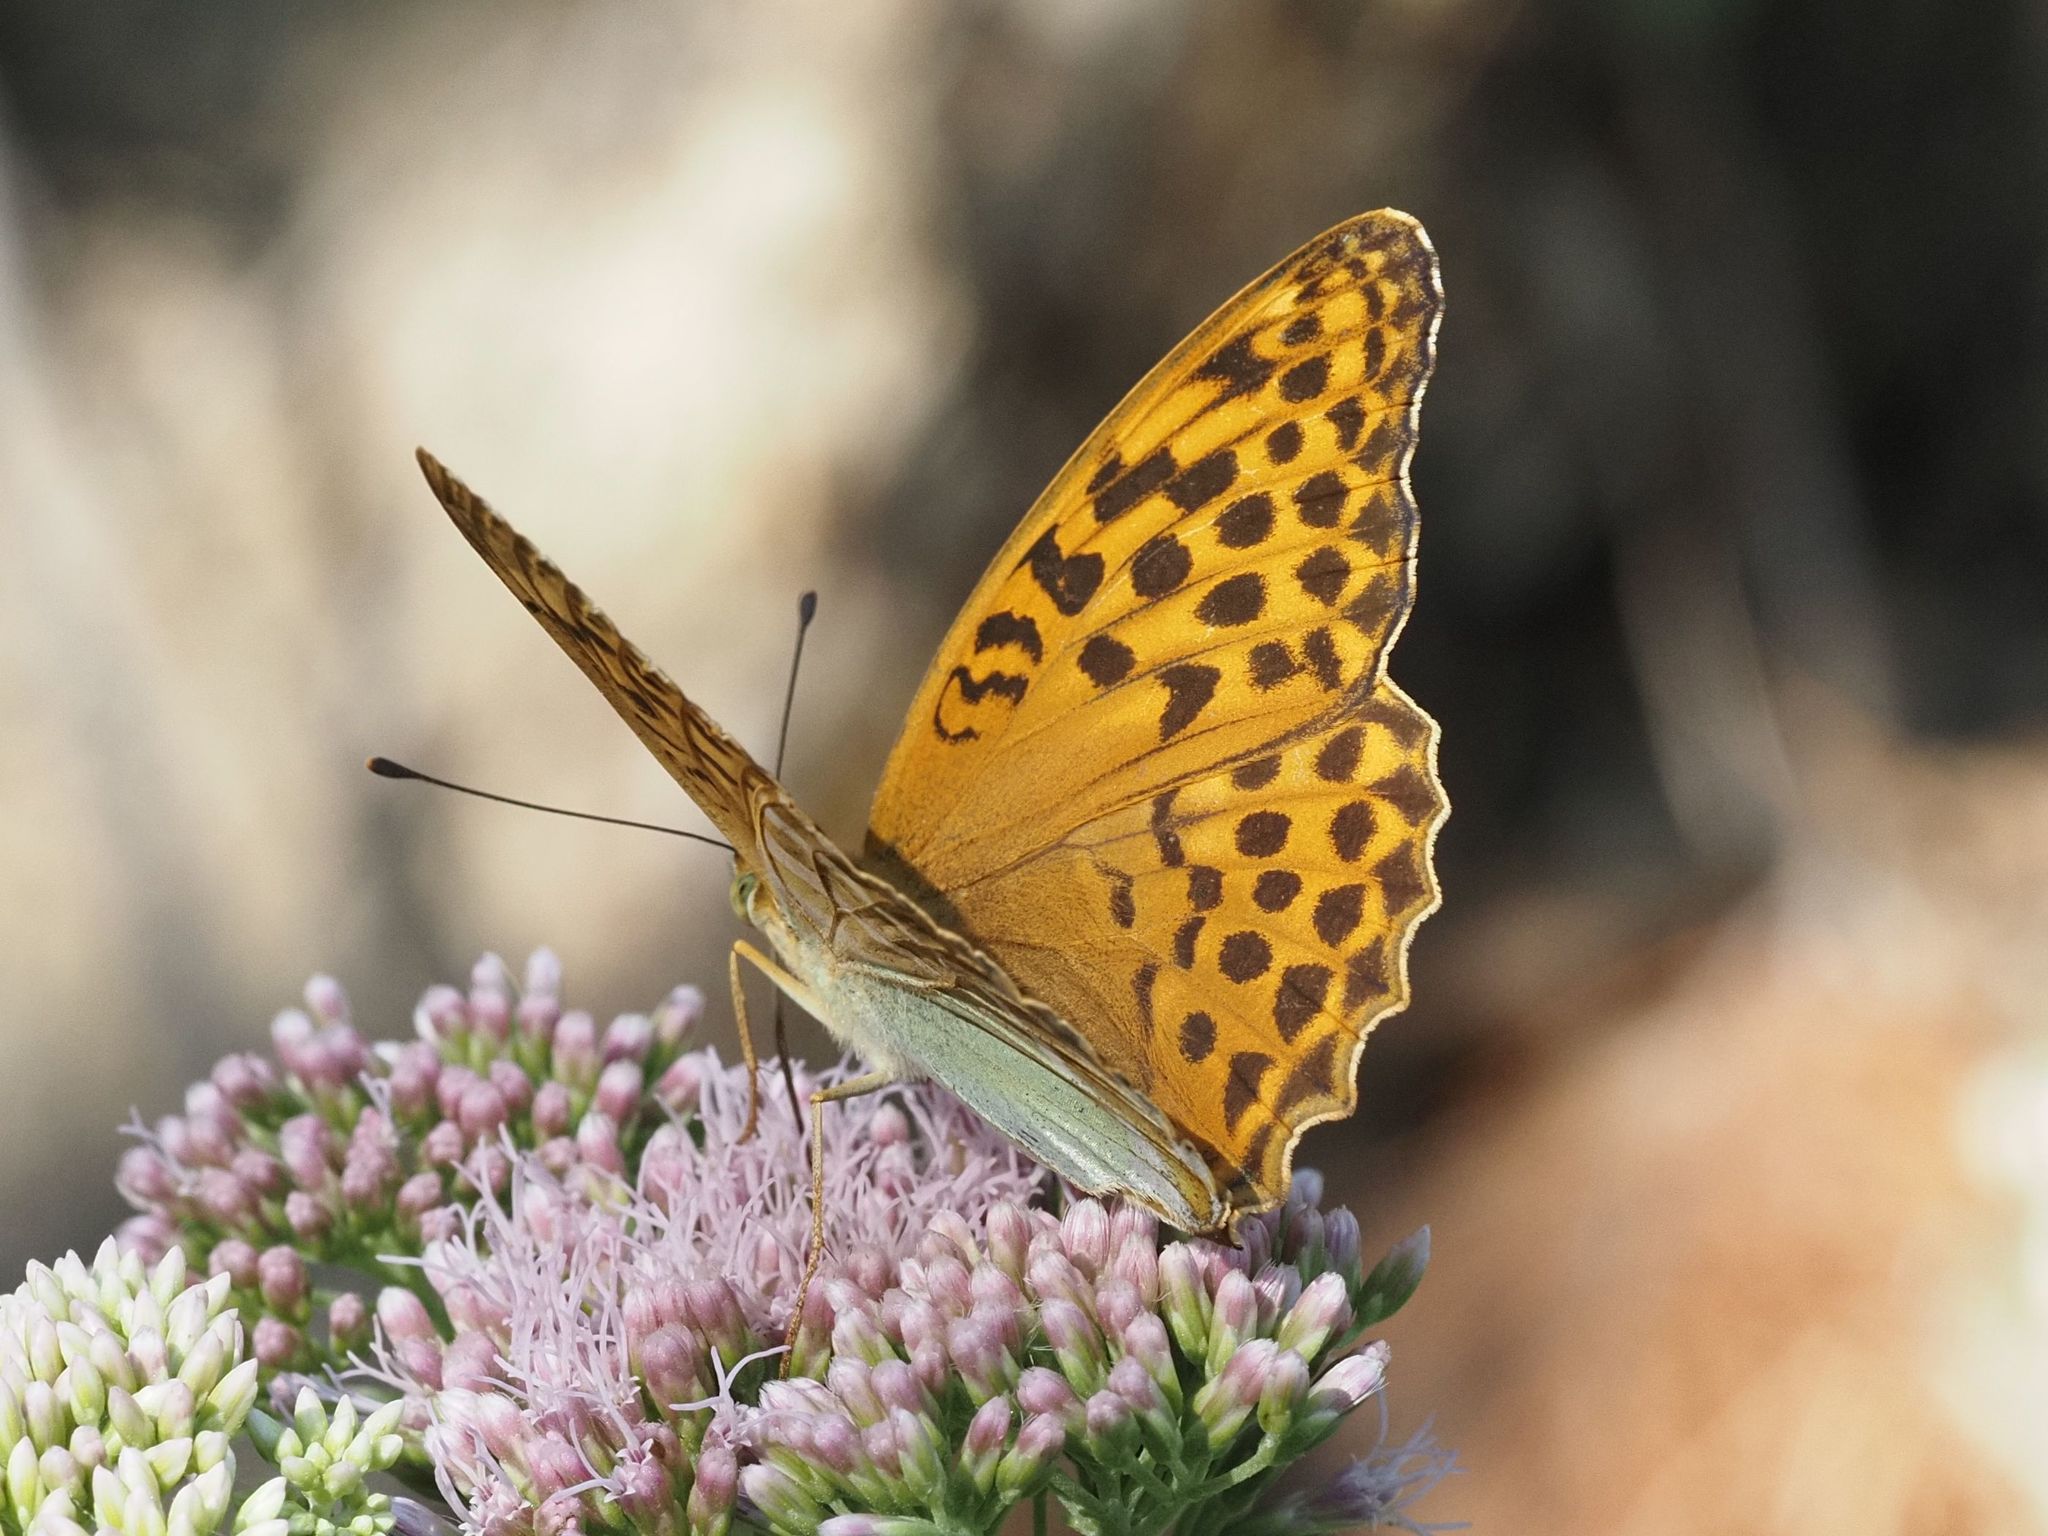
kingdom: Animalia
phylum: Arthropoda
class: Insecta
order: Lepidoptera
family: Nymphalidae
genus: Argynnis
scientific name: Argynnis paphia
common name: Silver-washed fritillary
